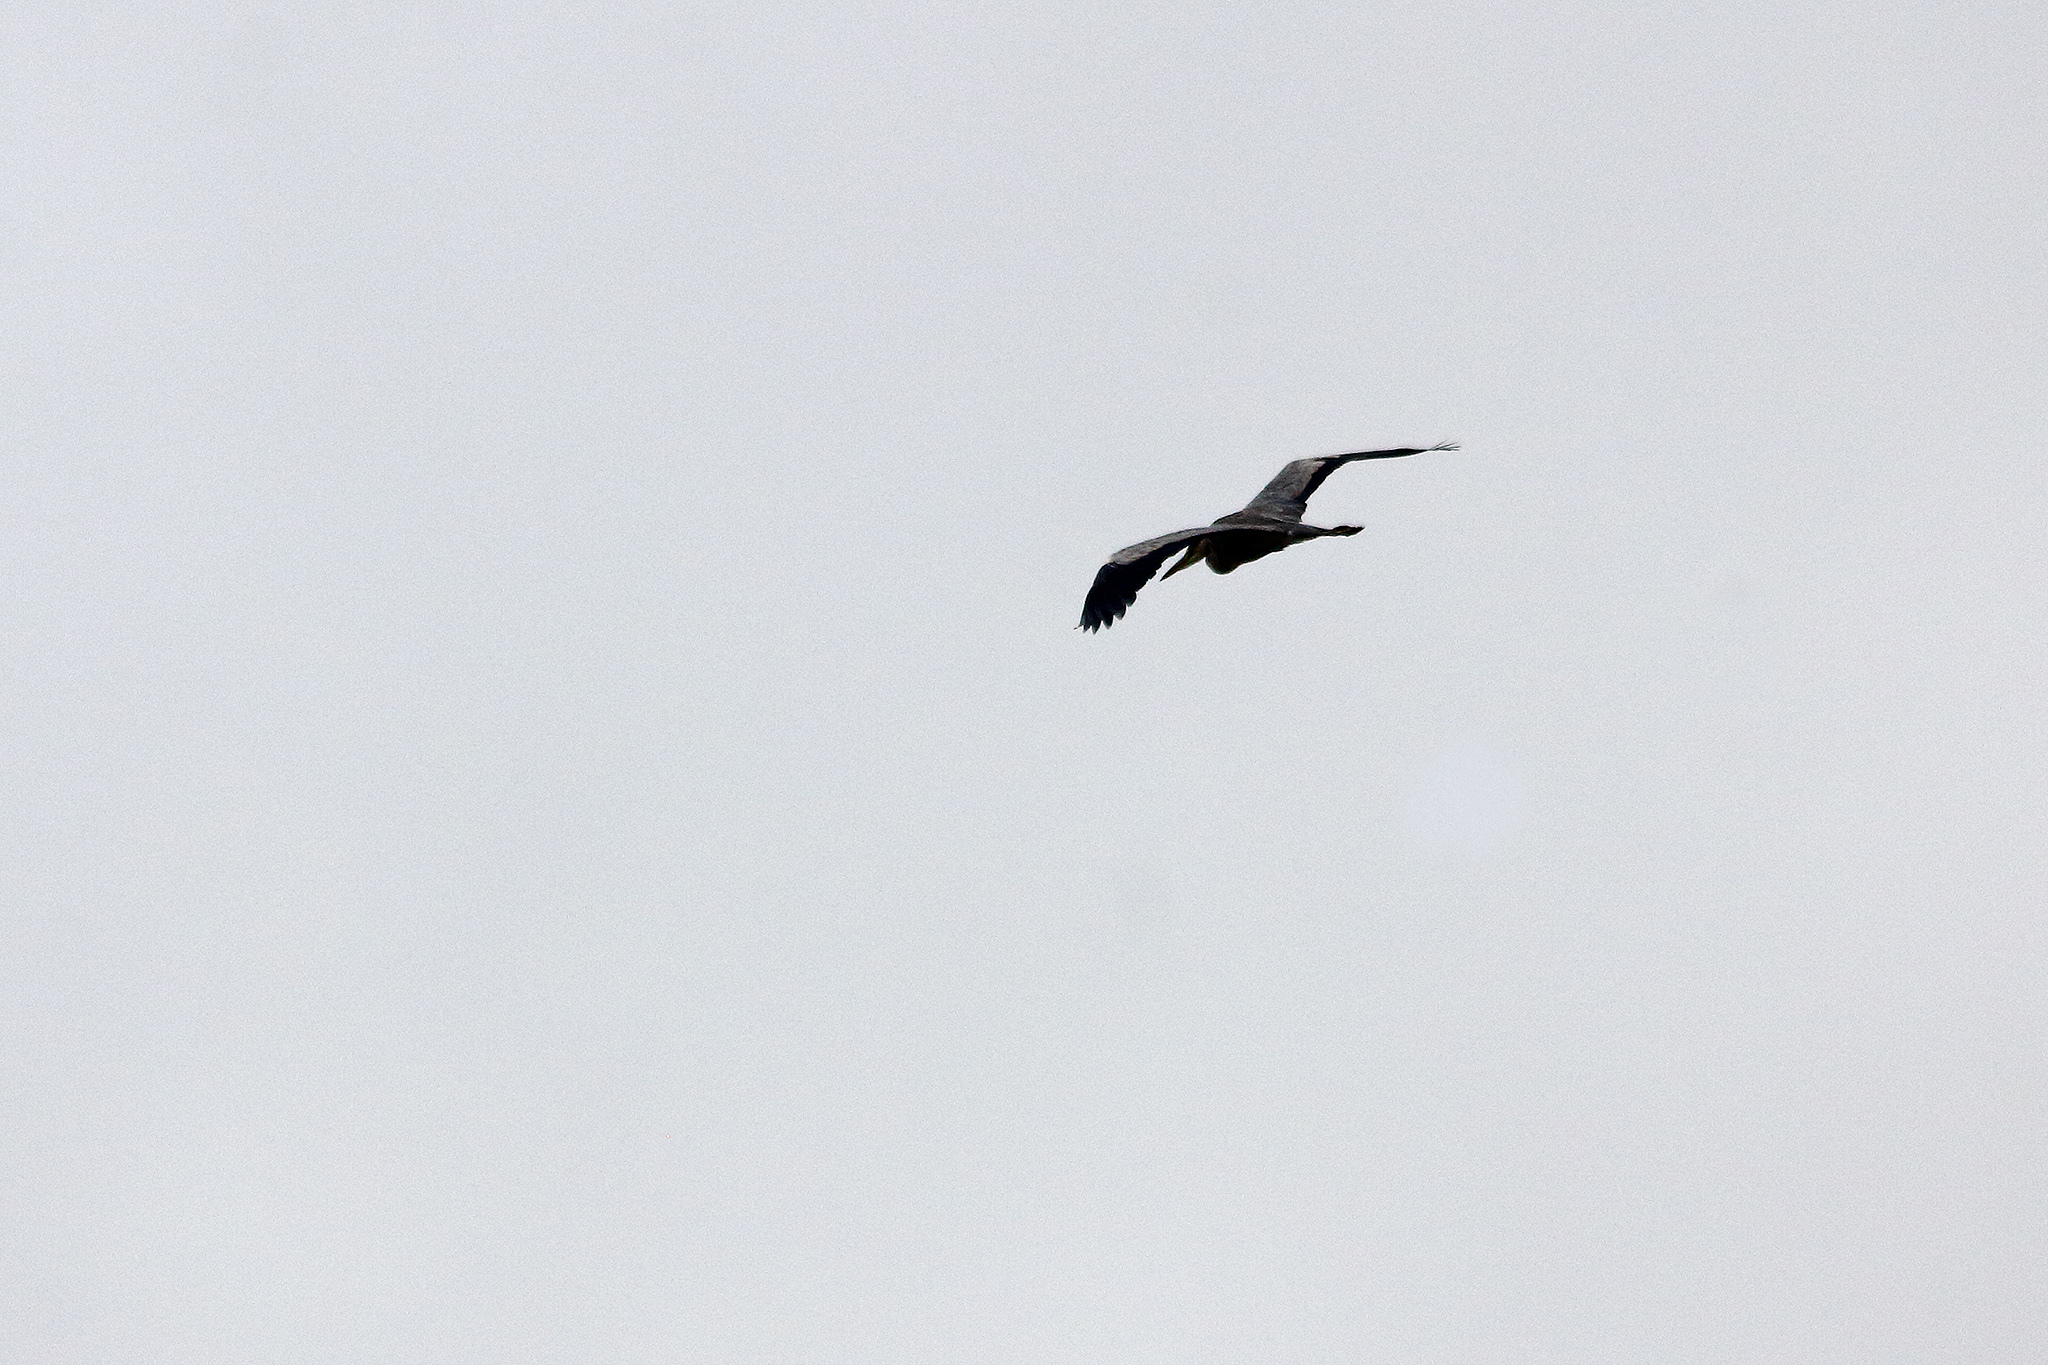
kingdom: Animalia
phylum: Chordata
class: Aves
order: Pelecaniformes
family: Ardeidae
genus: Ardea
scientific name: Ardea cinerea
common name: Grey heron
